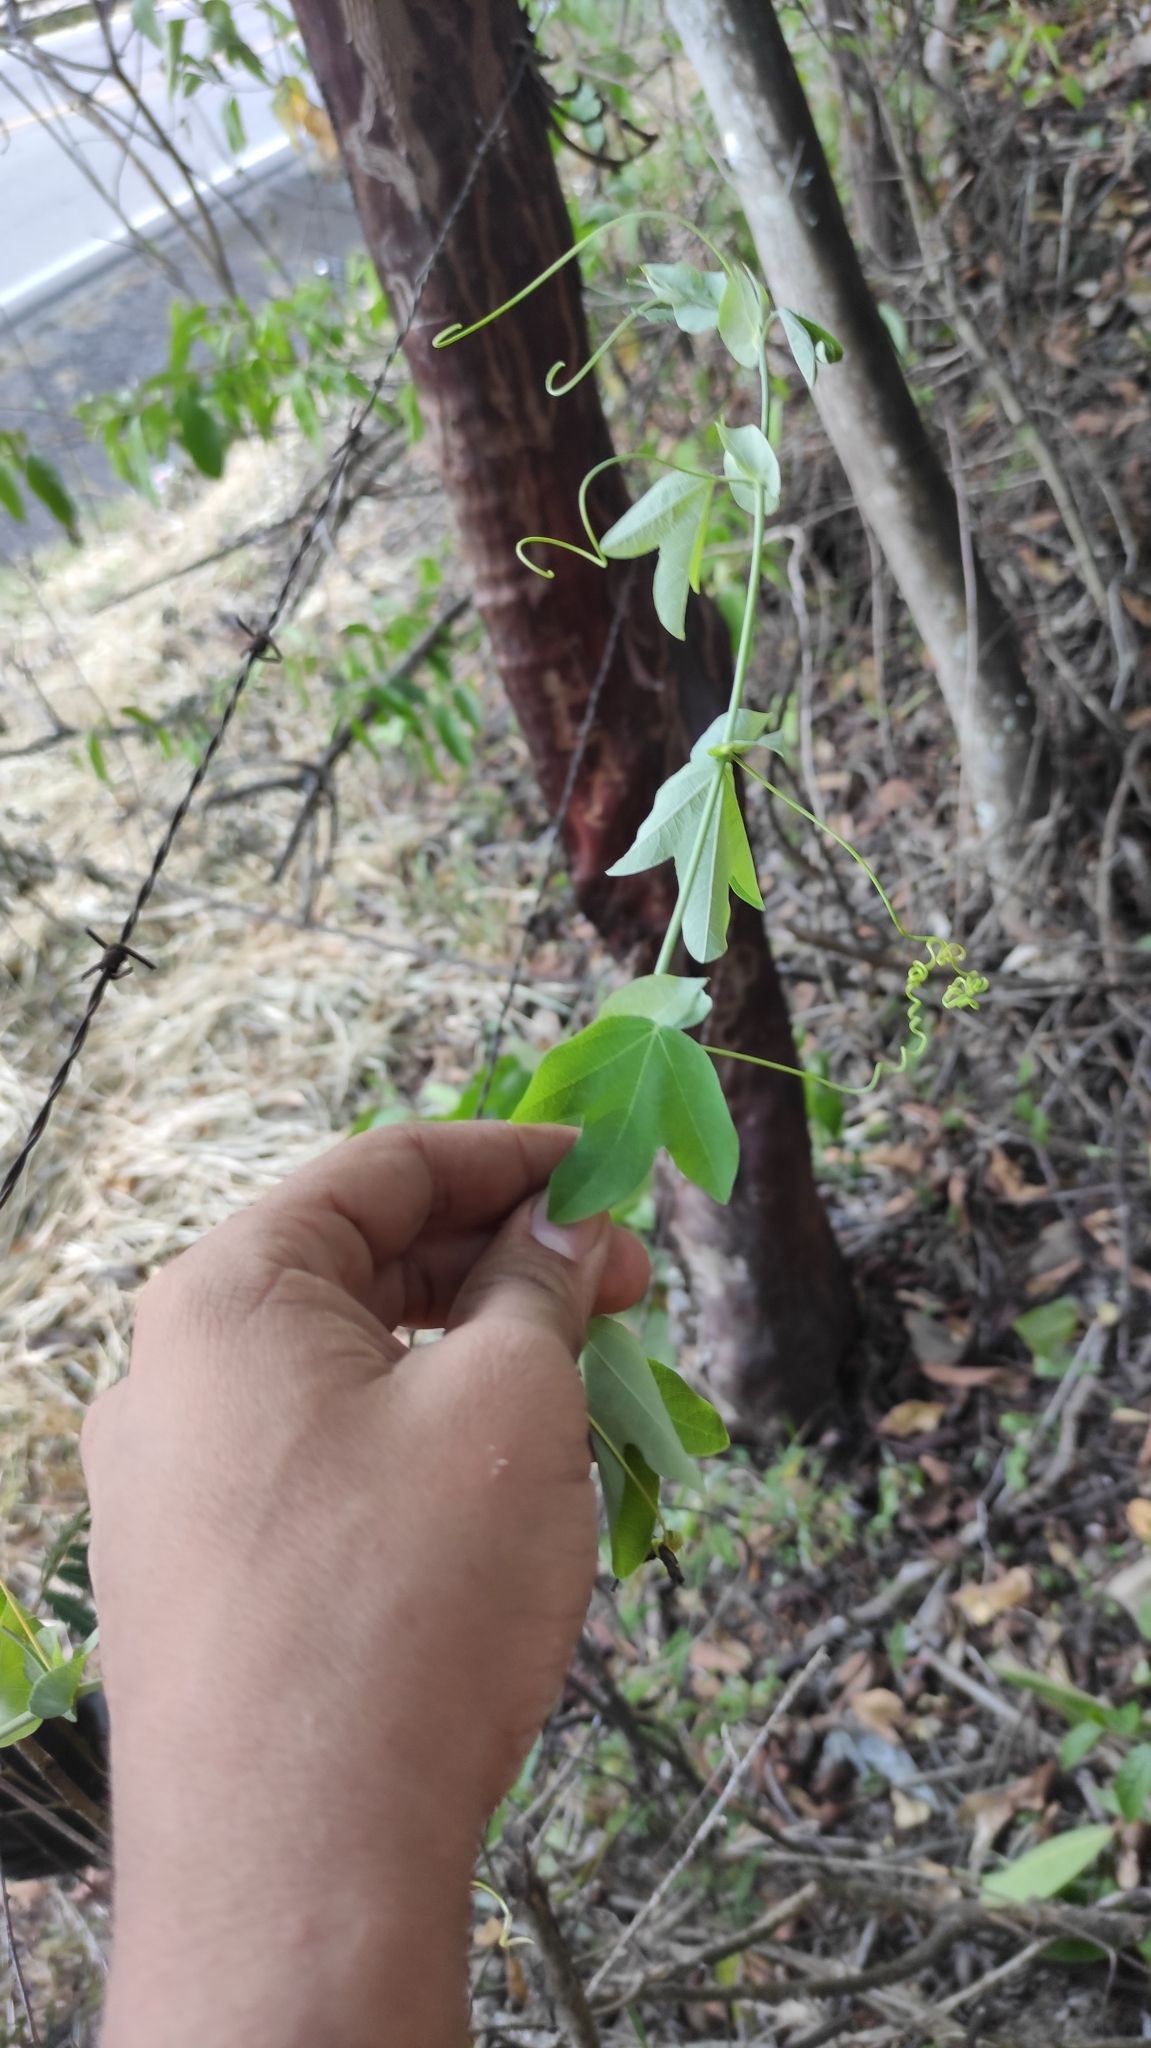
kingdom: Plantae
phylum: Tracheophyta
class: Magnoliopsida
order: Malpighiales
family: Passifloraceae
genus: Passiflora
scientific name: Passiflora smithii
